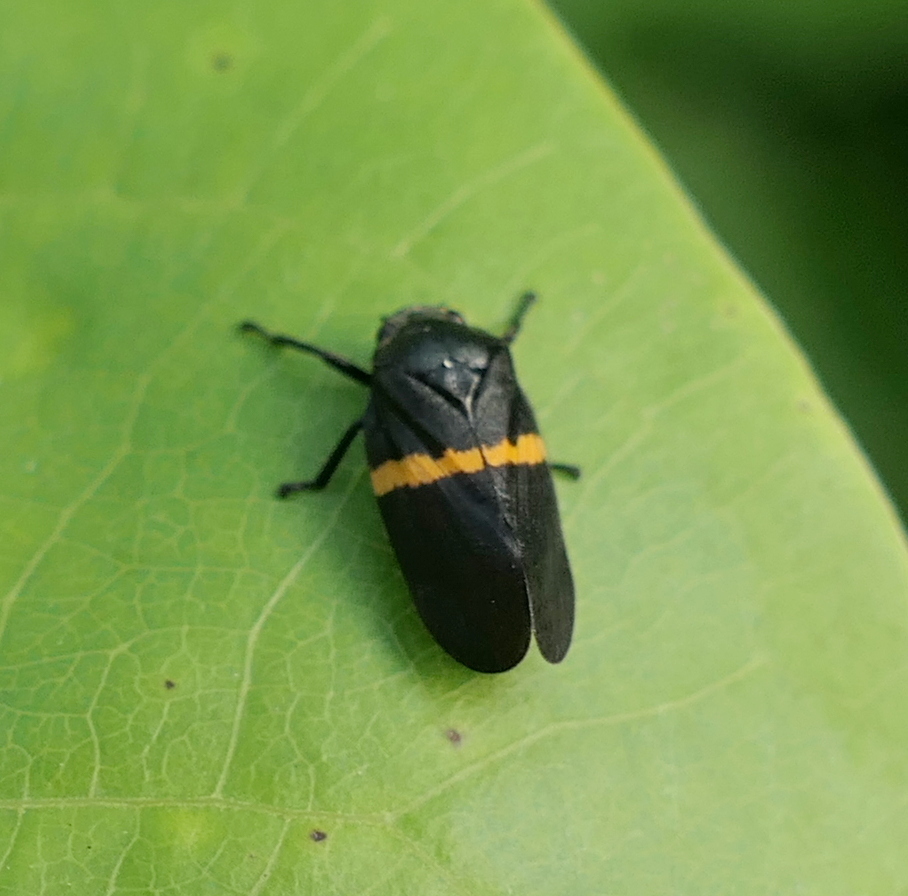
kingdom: Animalia
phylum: Arthropoda
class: Insecta
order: Hemiptera
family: Cercopidae
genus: Aeneolamia
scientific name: Aeneolamia colon
